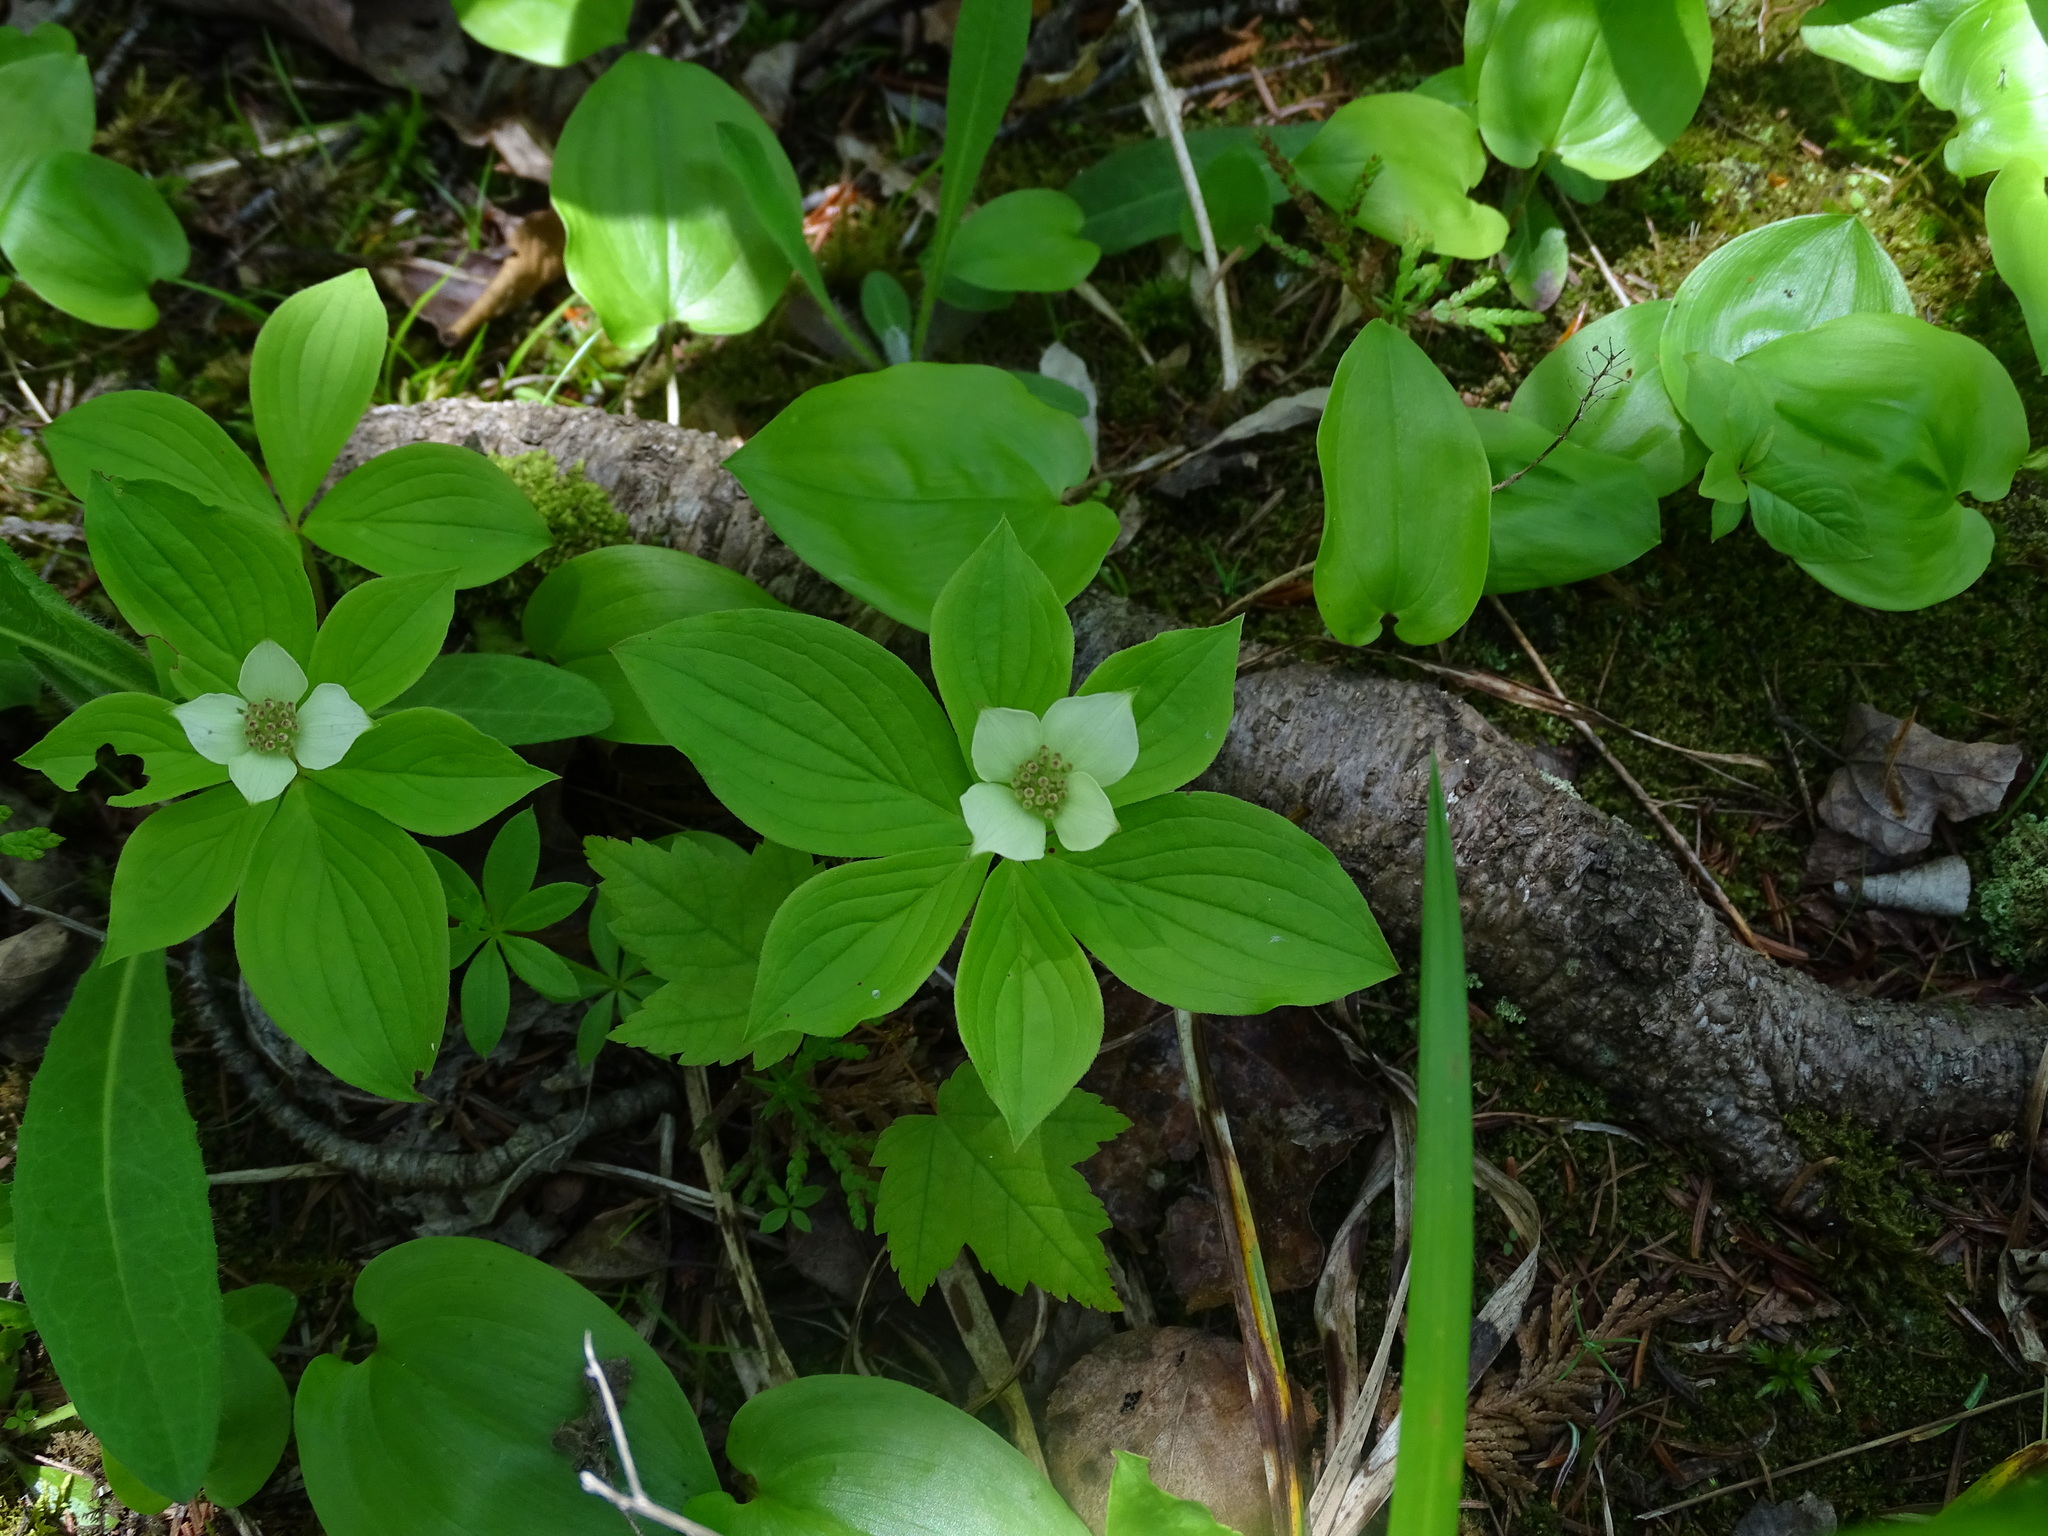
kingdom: Plantae
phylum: Tracheophyta
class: Magnoliopsida
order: Cornales
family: Cornaceae
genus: Cornus
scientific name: Cornus canadensis
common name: Creeping dogwood
